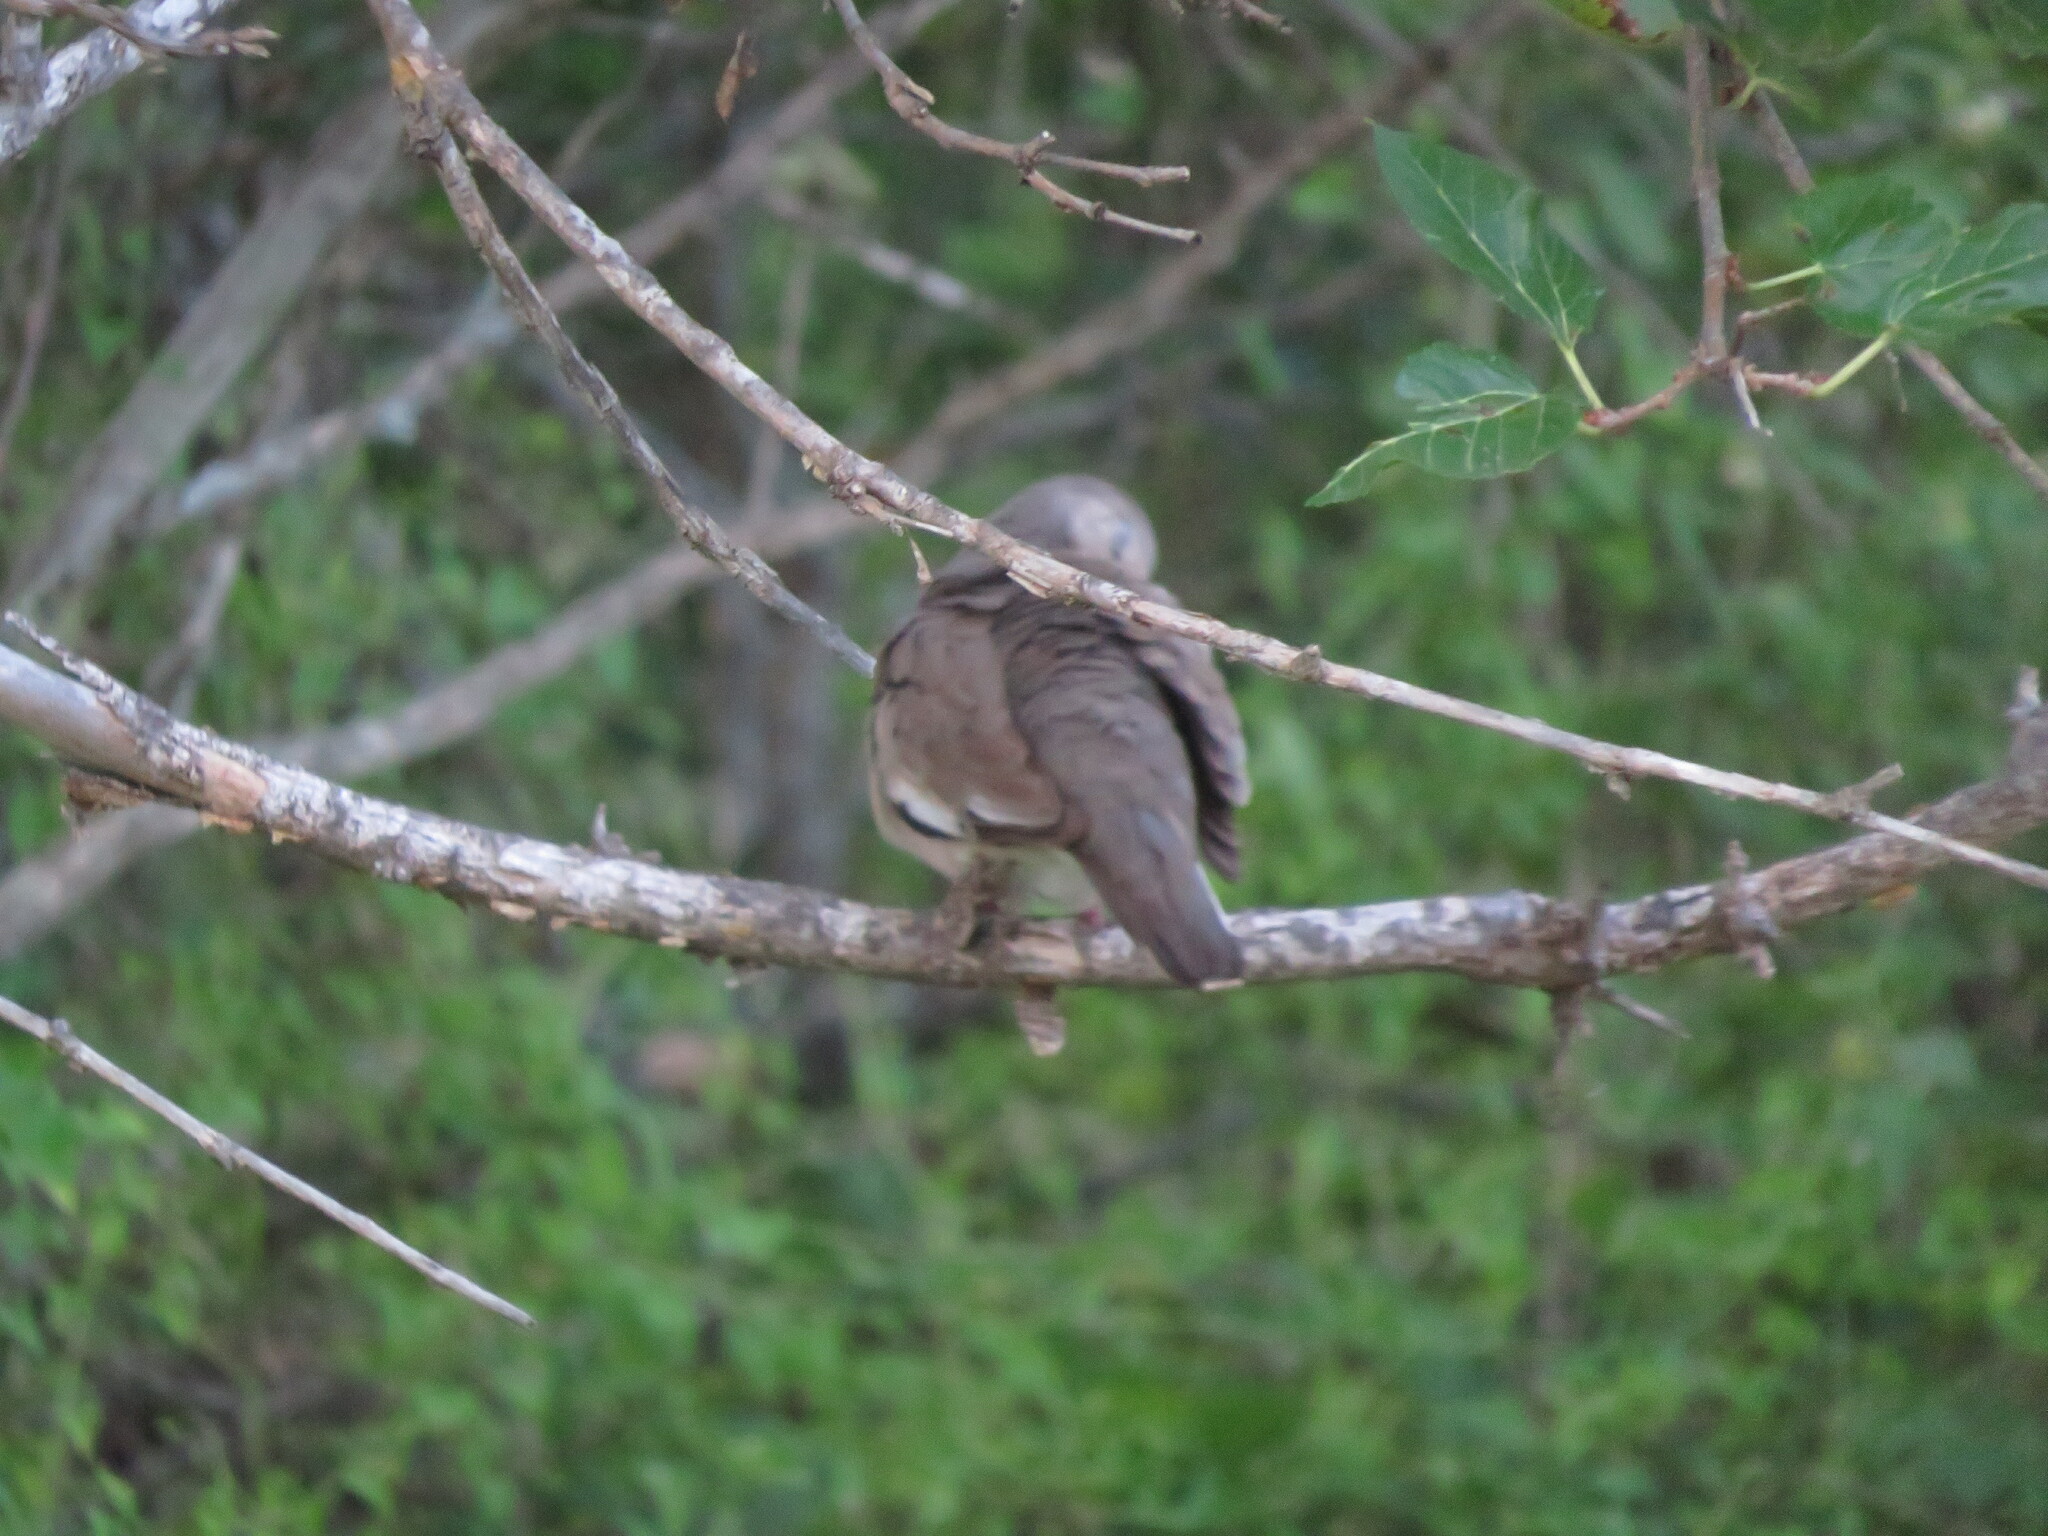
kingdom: Animalia
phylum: Chordata
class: Aves
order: Columbiformes
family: Columbidae
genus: Columbina
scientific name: Columbina picui
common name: Picui ground dove
